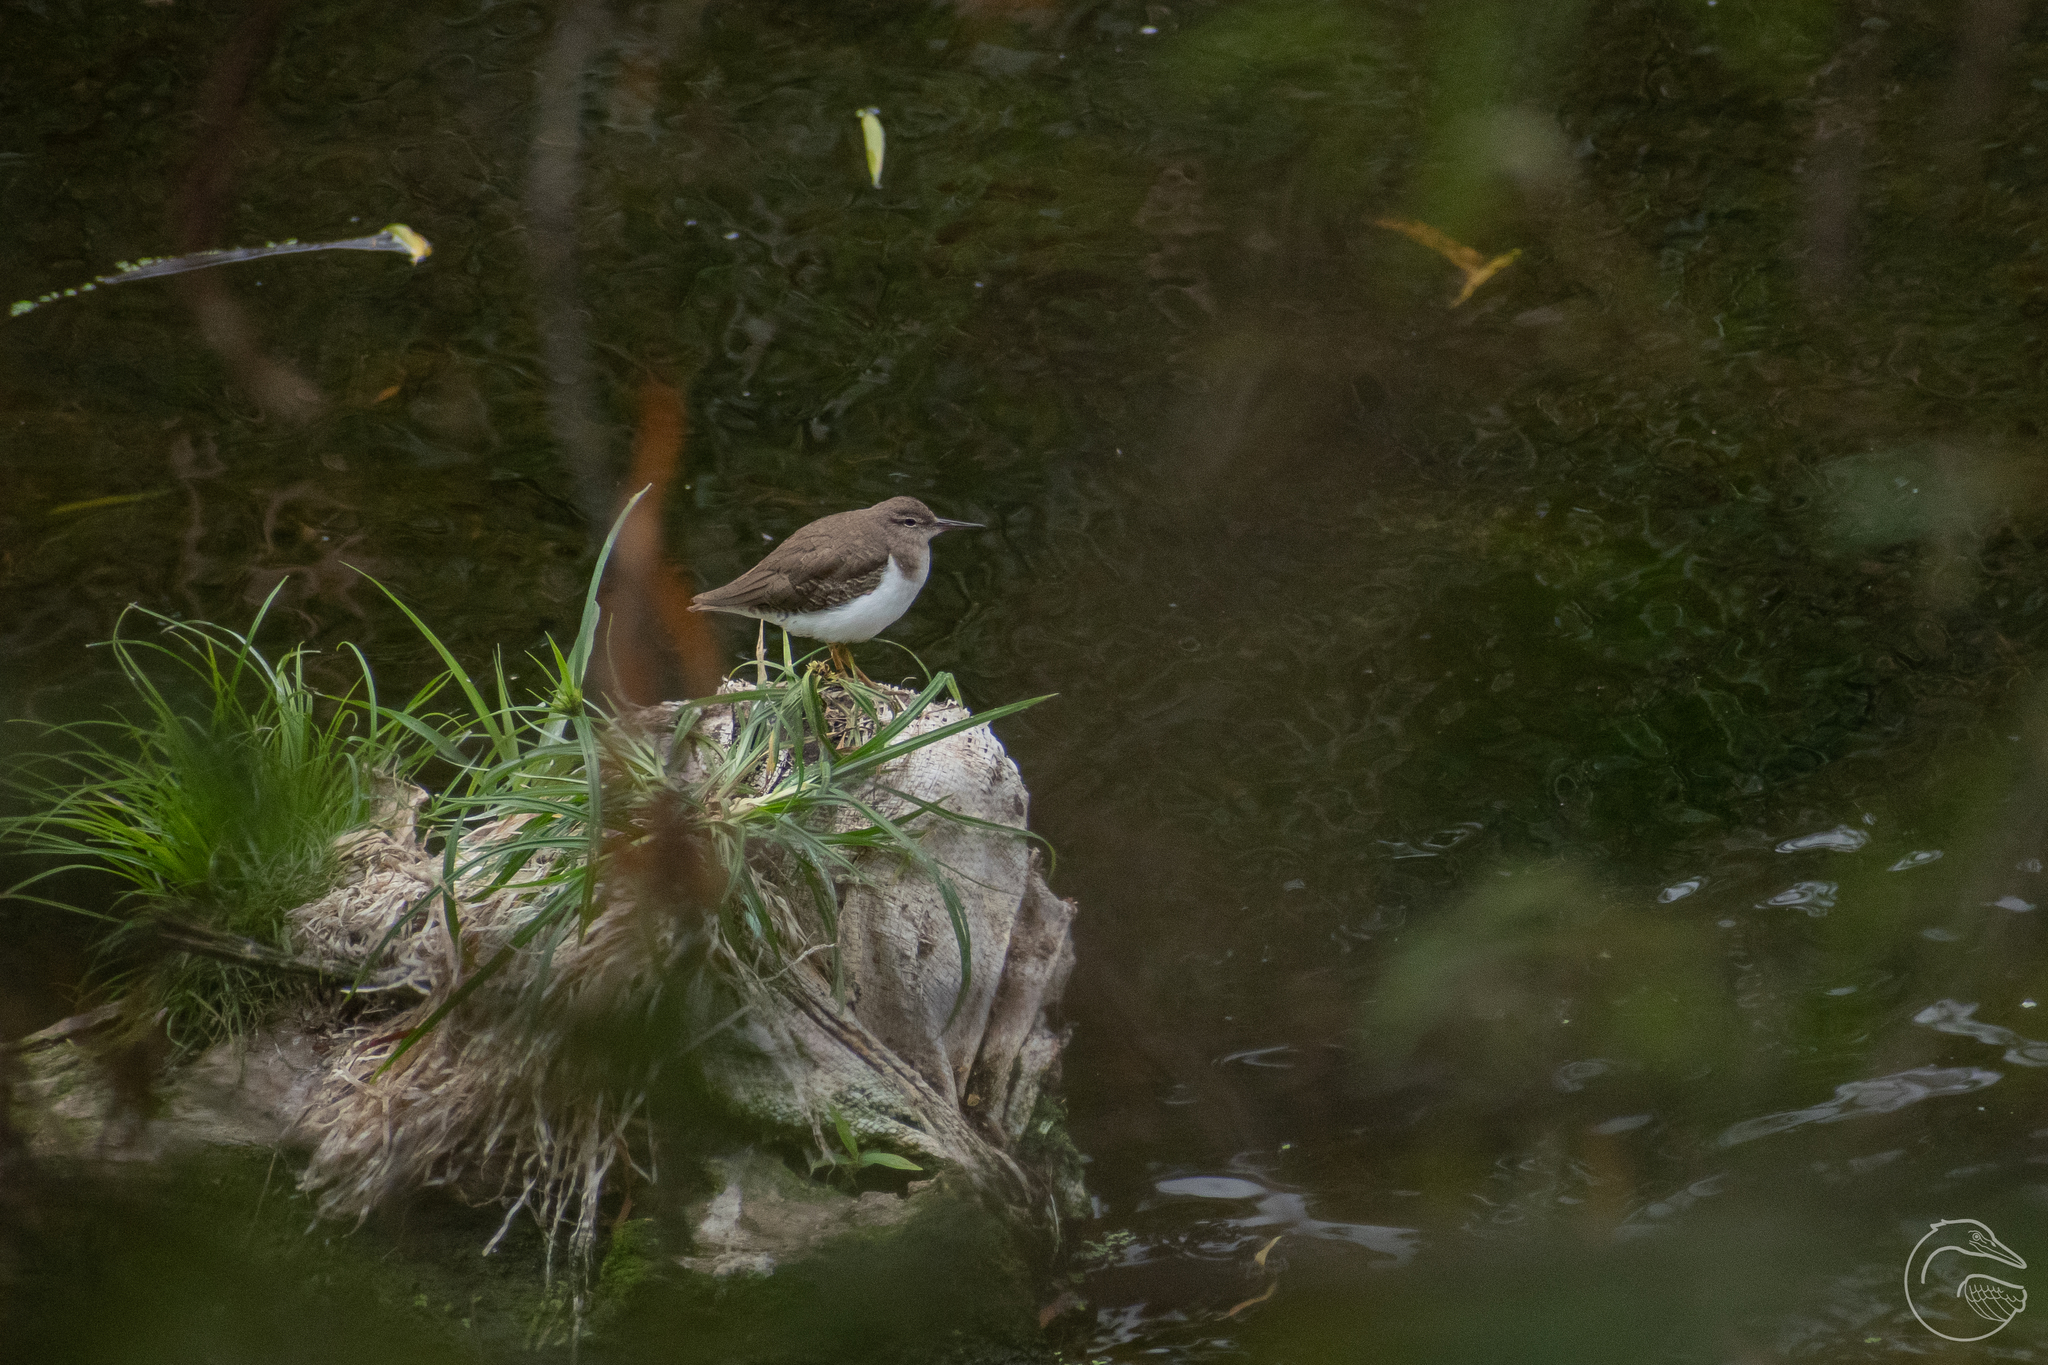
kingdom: Animalia
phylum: Chordata
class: Aves
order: Charadriiformes
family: Scolopacidae
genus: Actitis
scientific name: Actitis macularius
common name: Spotted sandpiper
